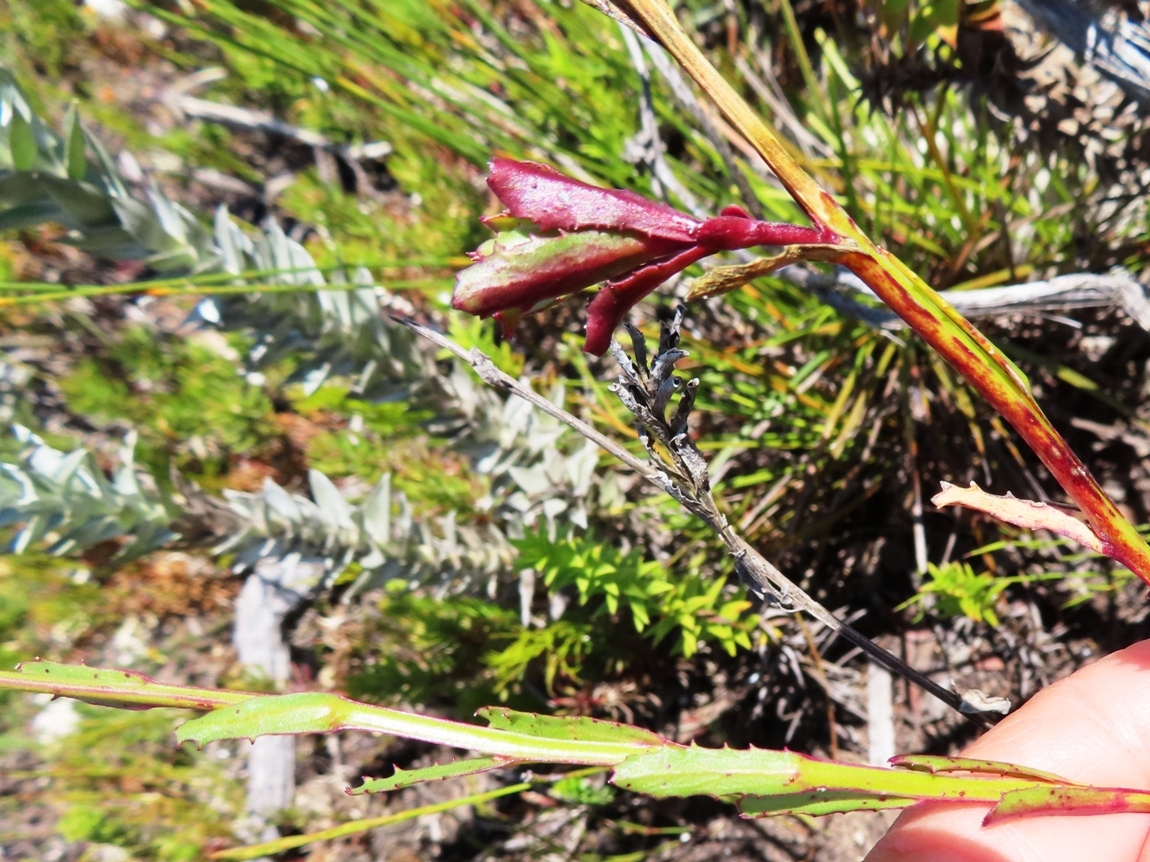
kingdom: Plantae
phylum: Tracheophyta
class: Magnoliopsida
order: Asterales
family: Campanulaceae
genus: Lobelia
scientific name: Lobelia valida
